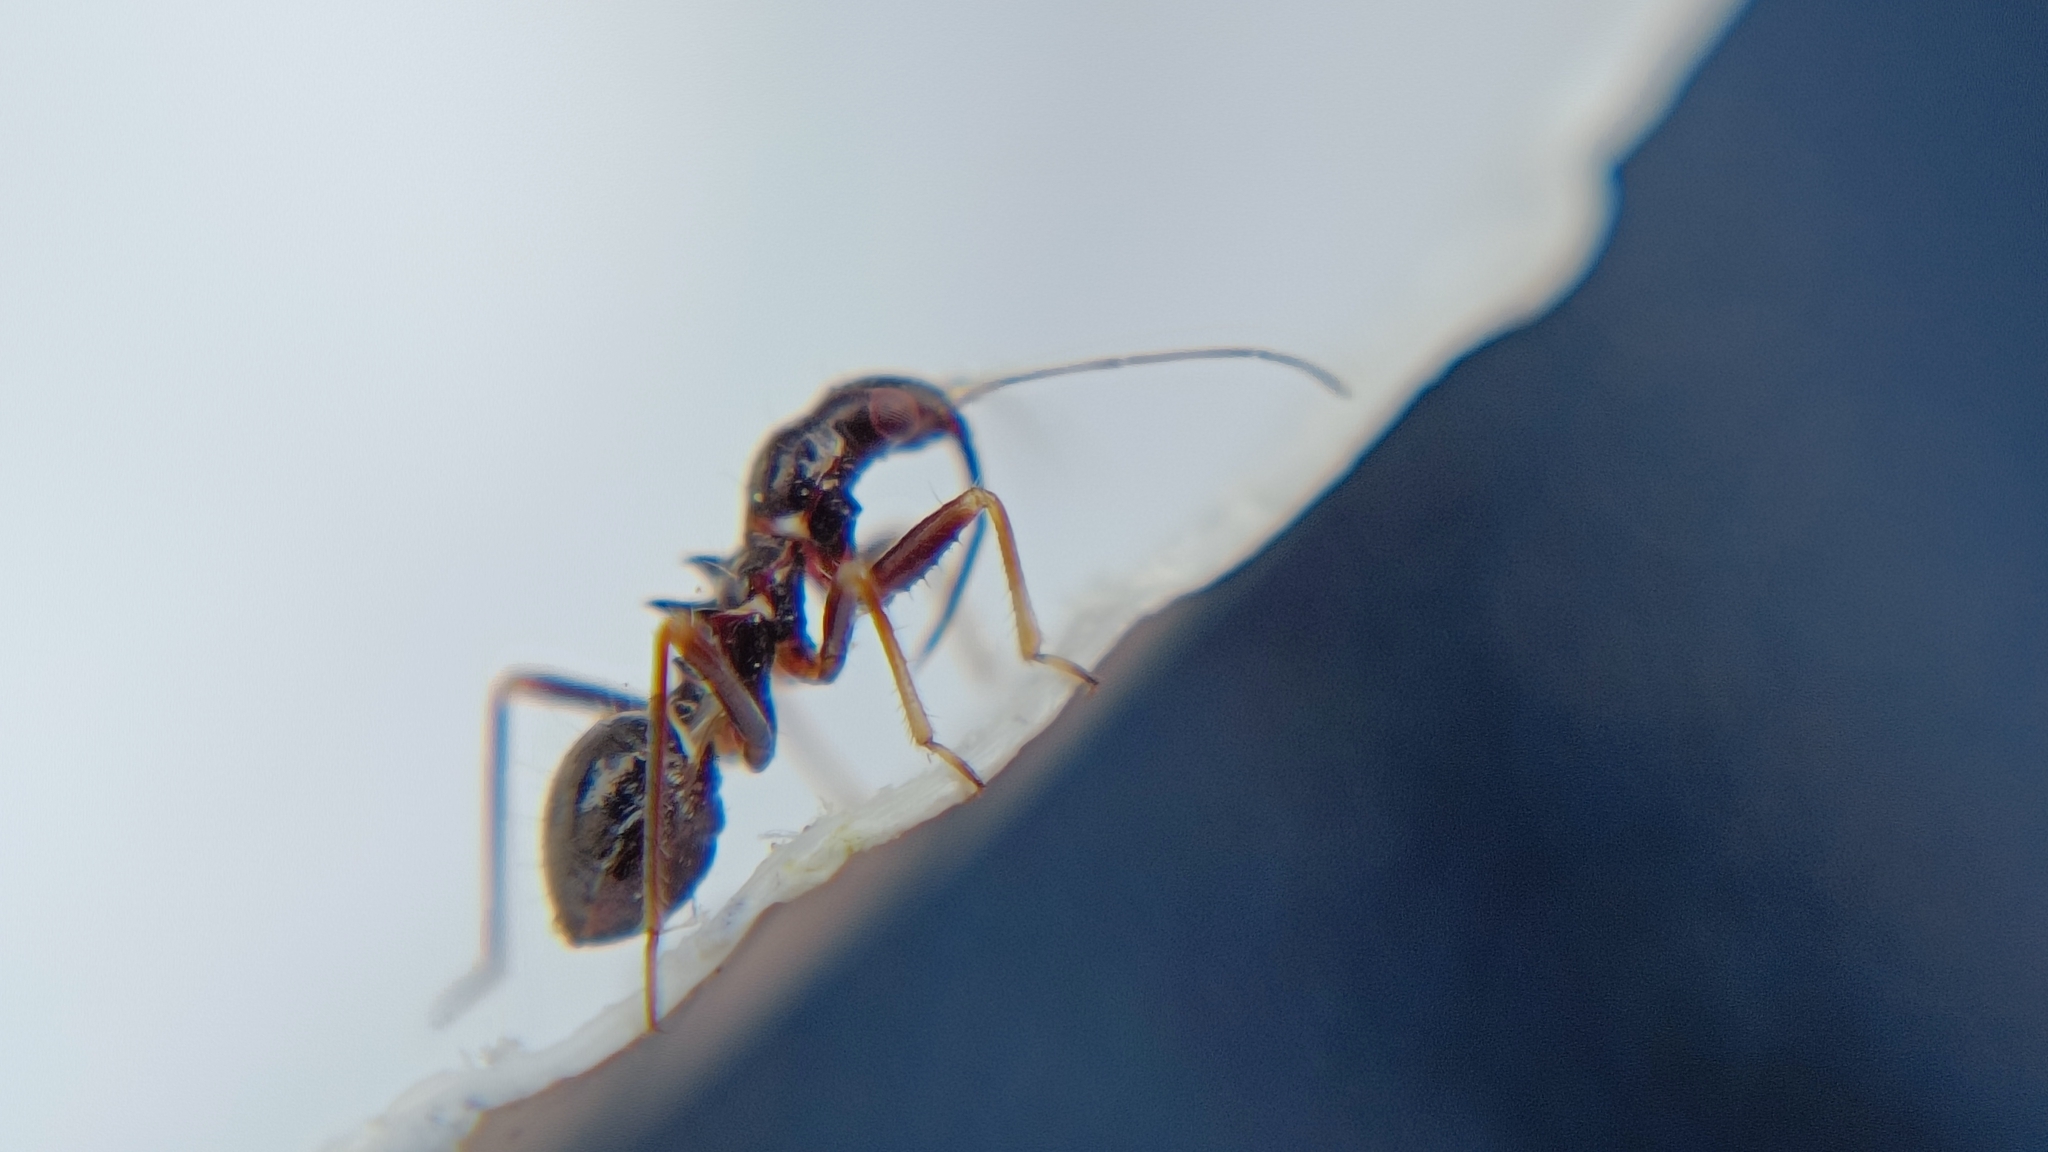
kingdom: Animalia
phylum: Arthropoda
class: Insecta
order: Hemiptera
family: Nabidae
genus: Himacerus
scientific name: Himacerus mirmicoides
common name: Ant damsel bug
